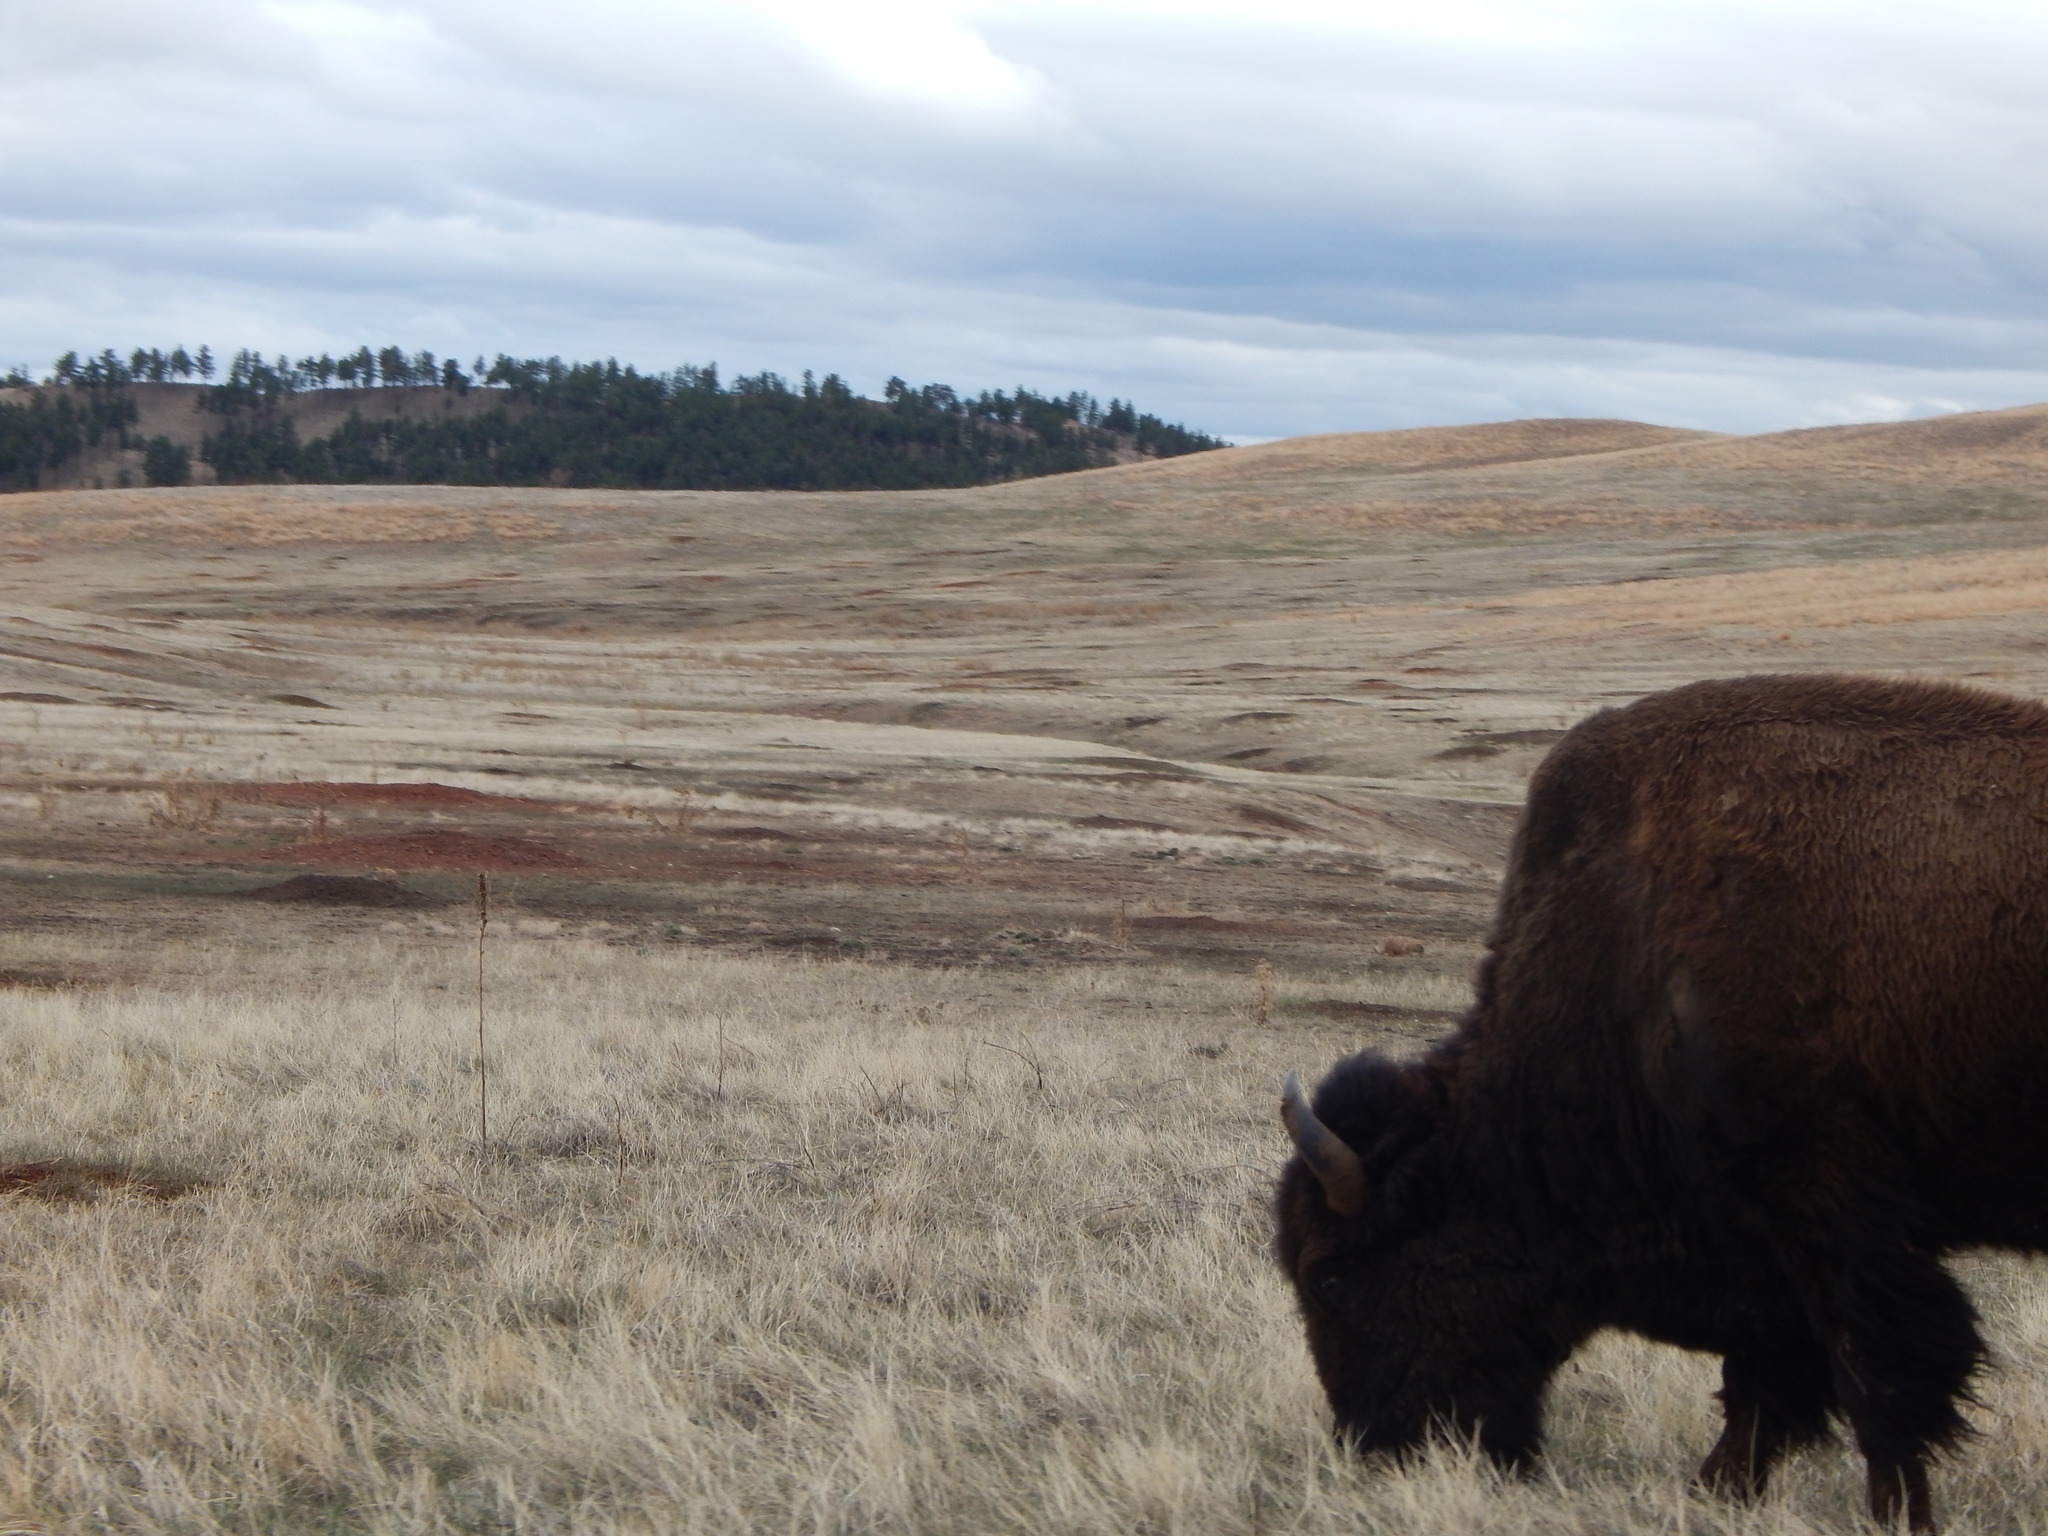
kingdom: Animalia
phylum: Chordata
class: Mammalia
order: Artiodactyla
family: Bovidae
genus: Bison
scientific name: Bison bison
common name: American bison
